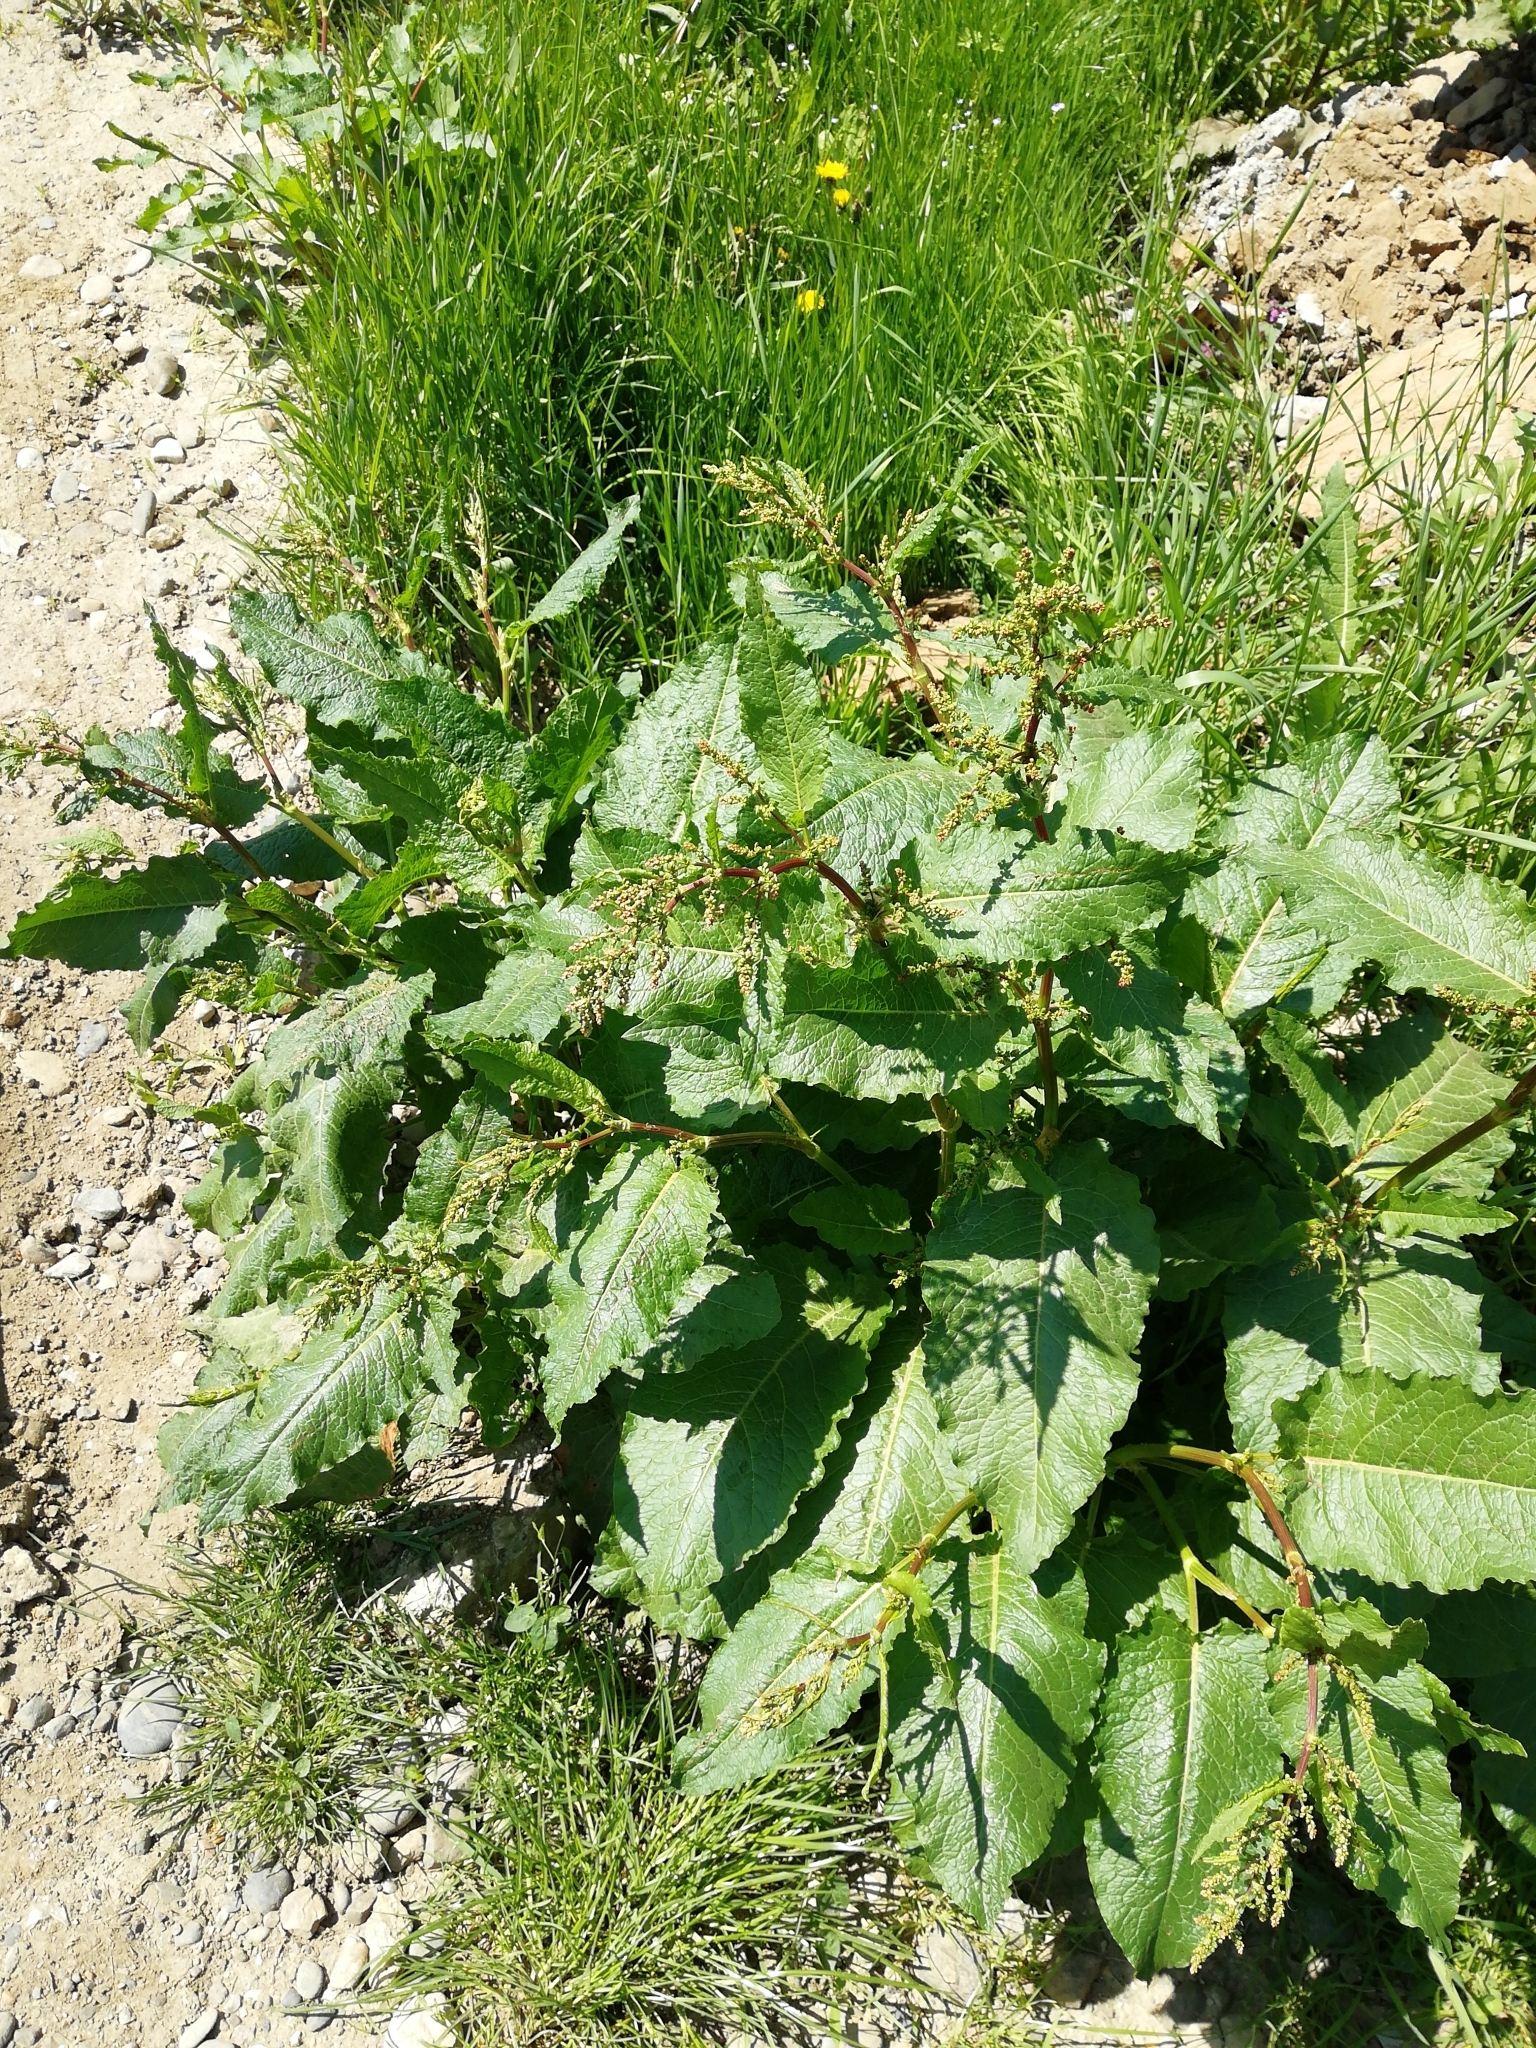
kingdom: Plantae
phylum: Tracheophyta
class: Magnoliopsida
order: Caryophyllales
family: Polygonaceae
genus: Rumex
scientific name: Rumex obtusifolius
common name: Bitter dock
